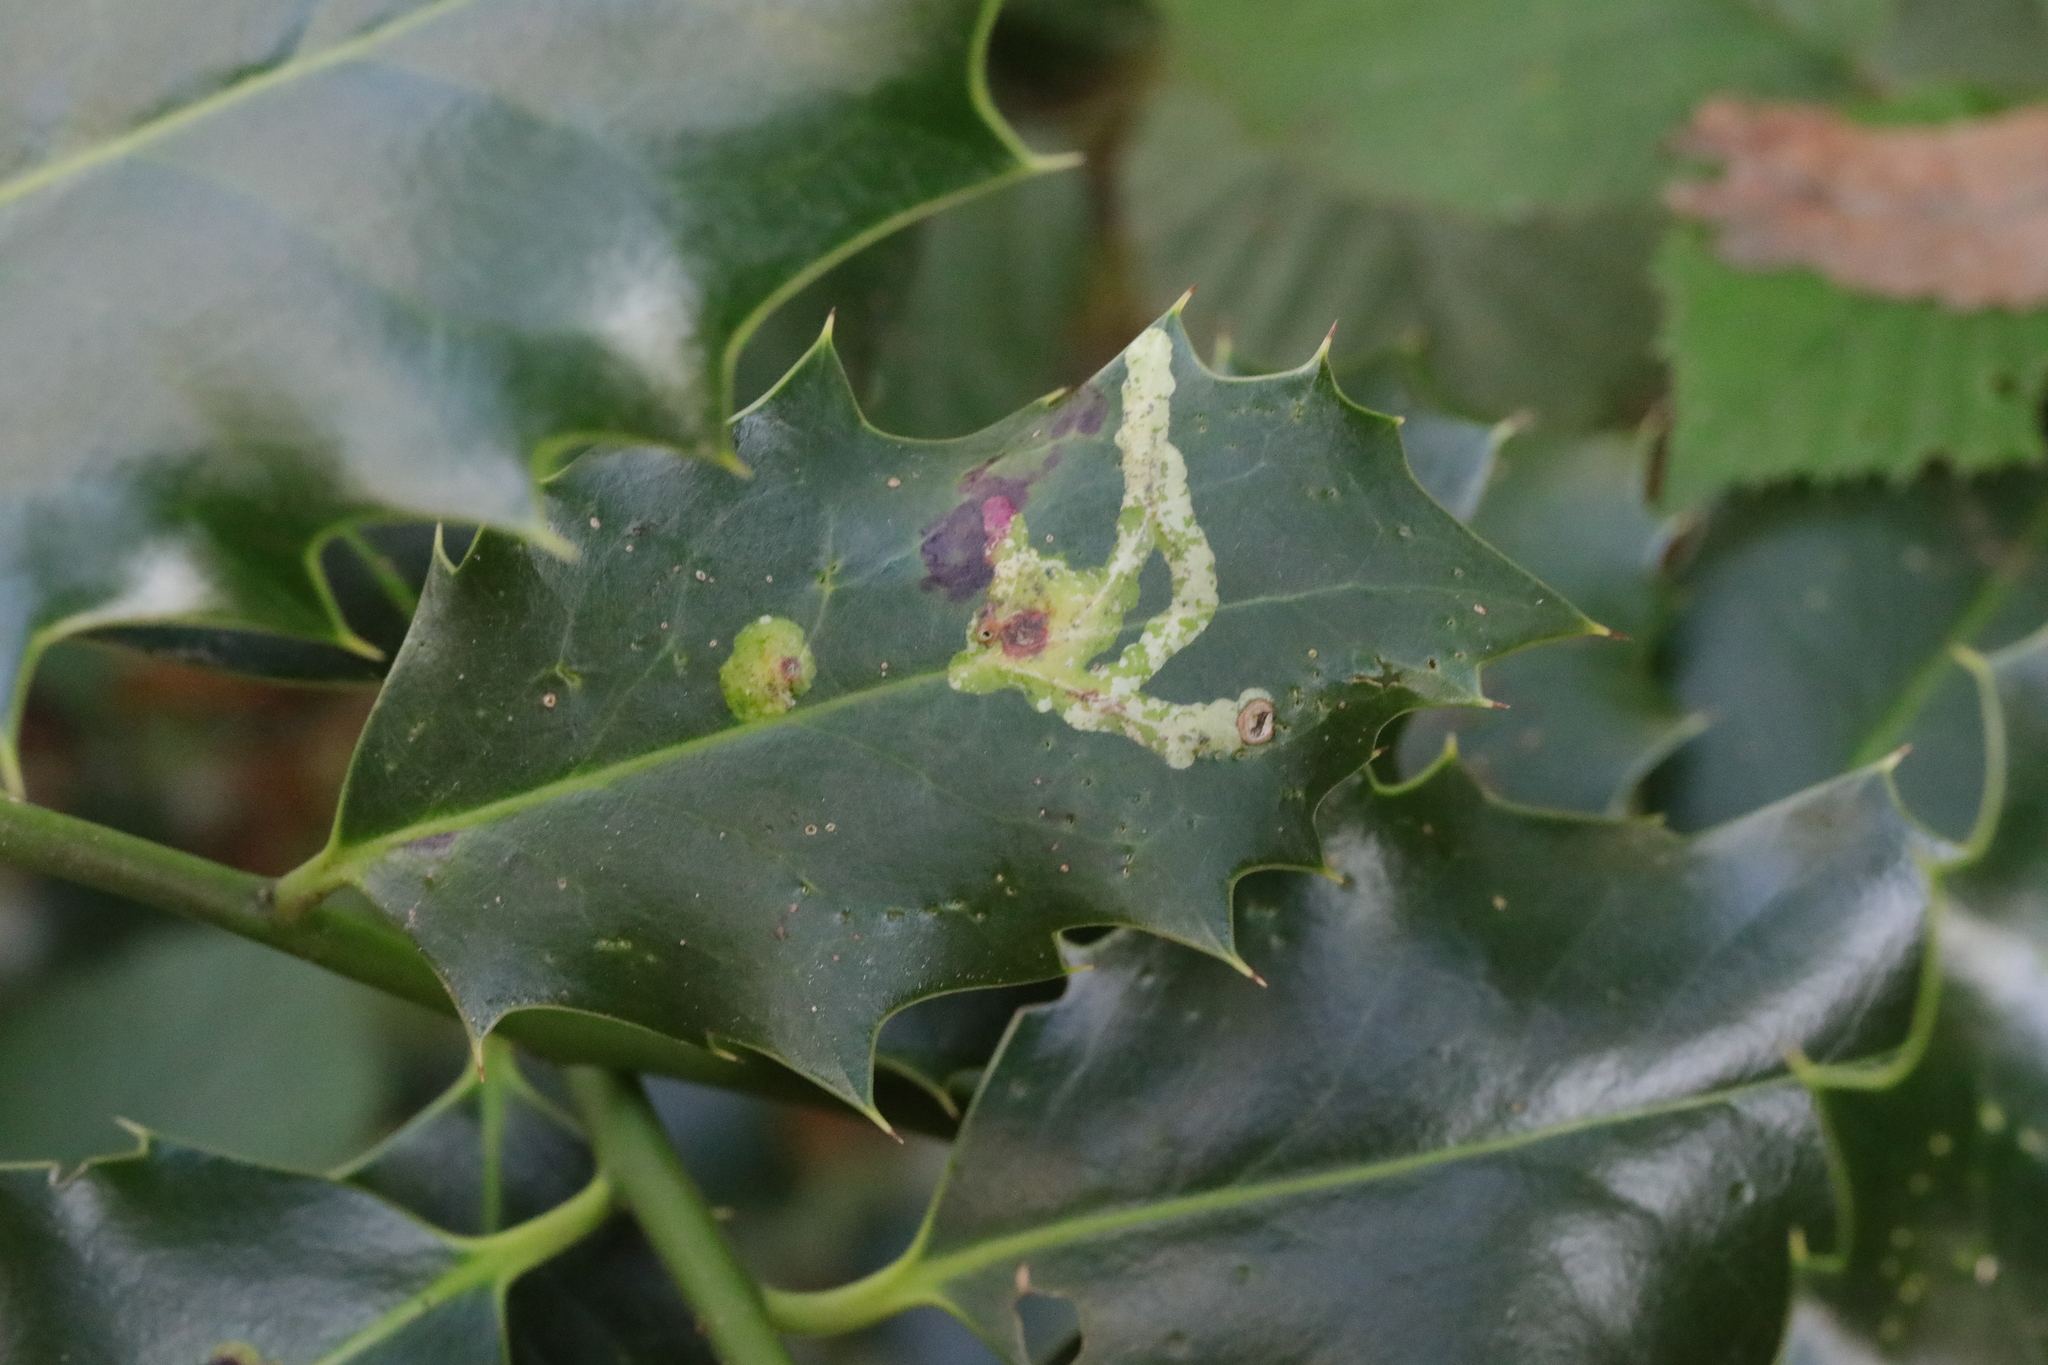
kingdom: Plantae
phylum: Tracheophyta
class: Magnoliopsida
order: Aquifoliales
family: Aquifoliaceae
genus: Ilex
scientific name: Ilex aquifolium
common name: English holly
